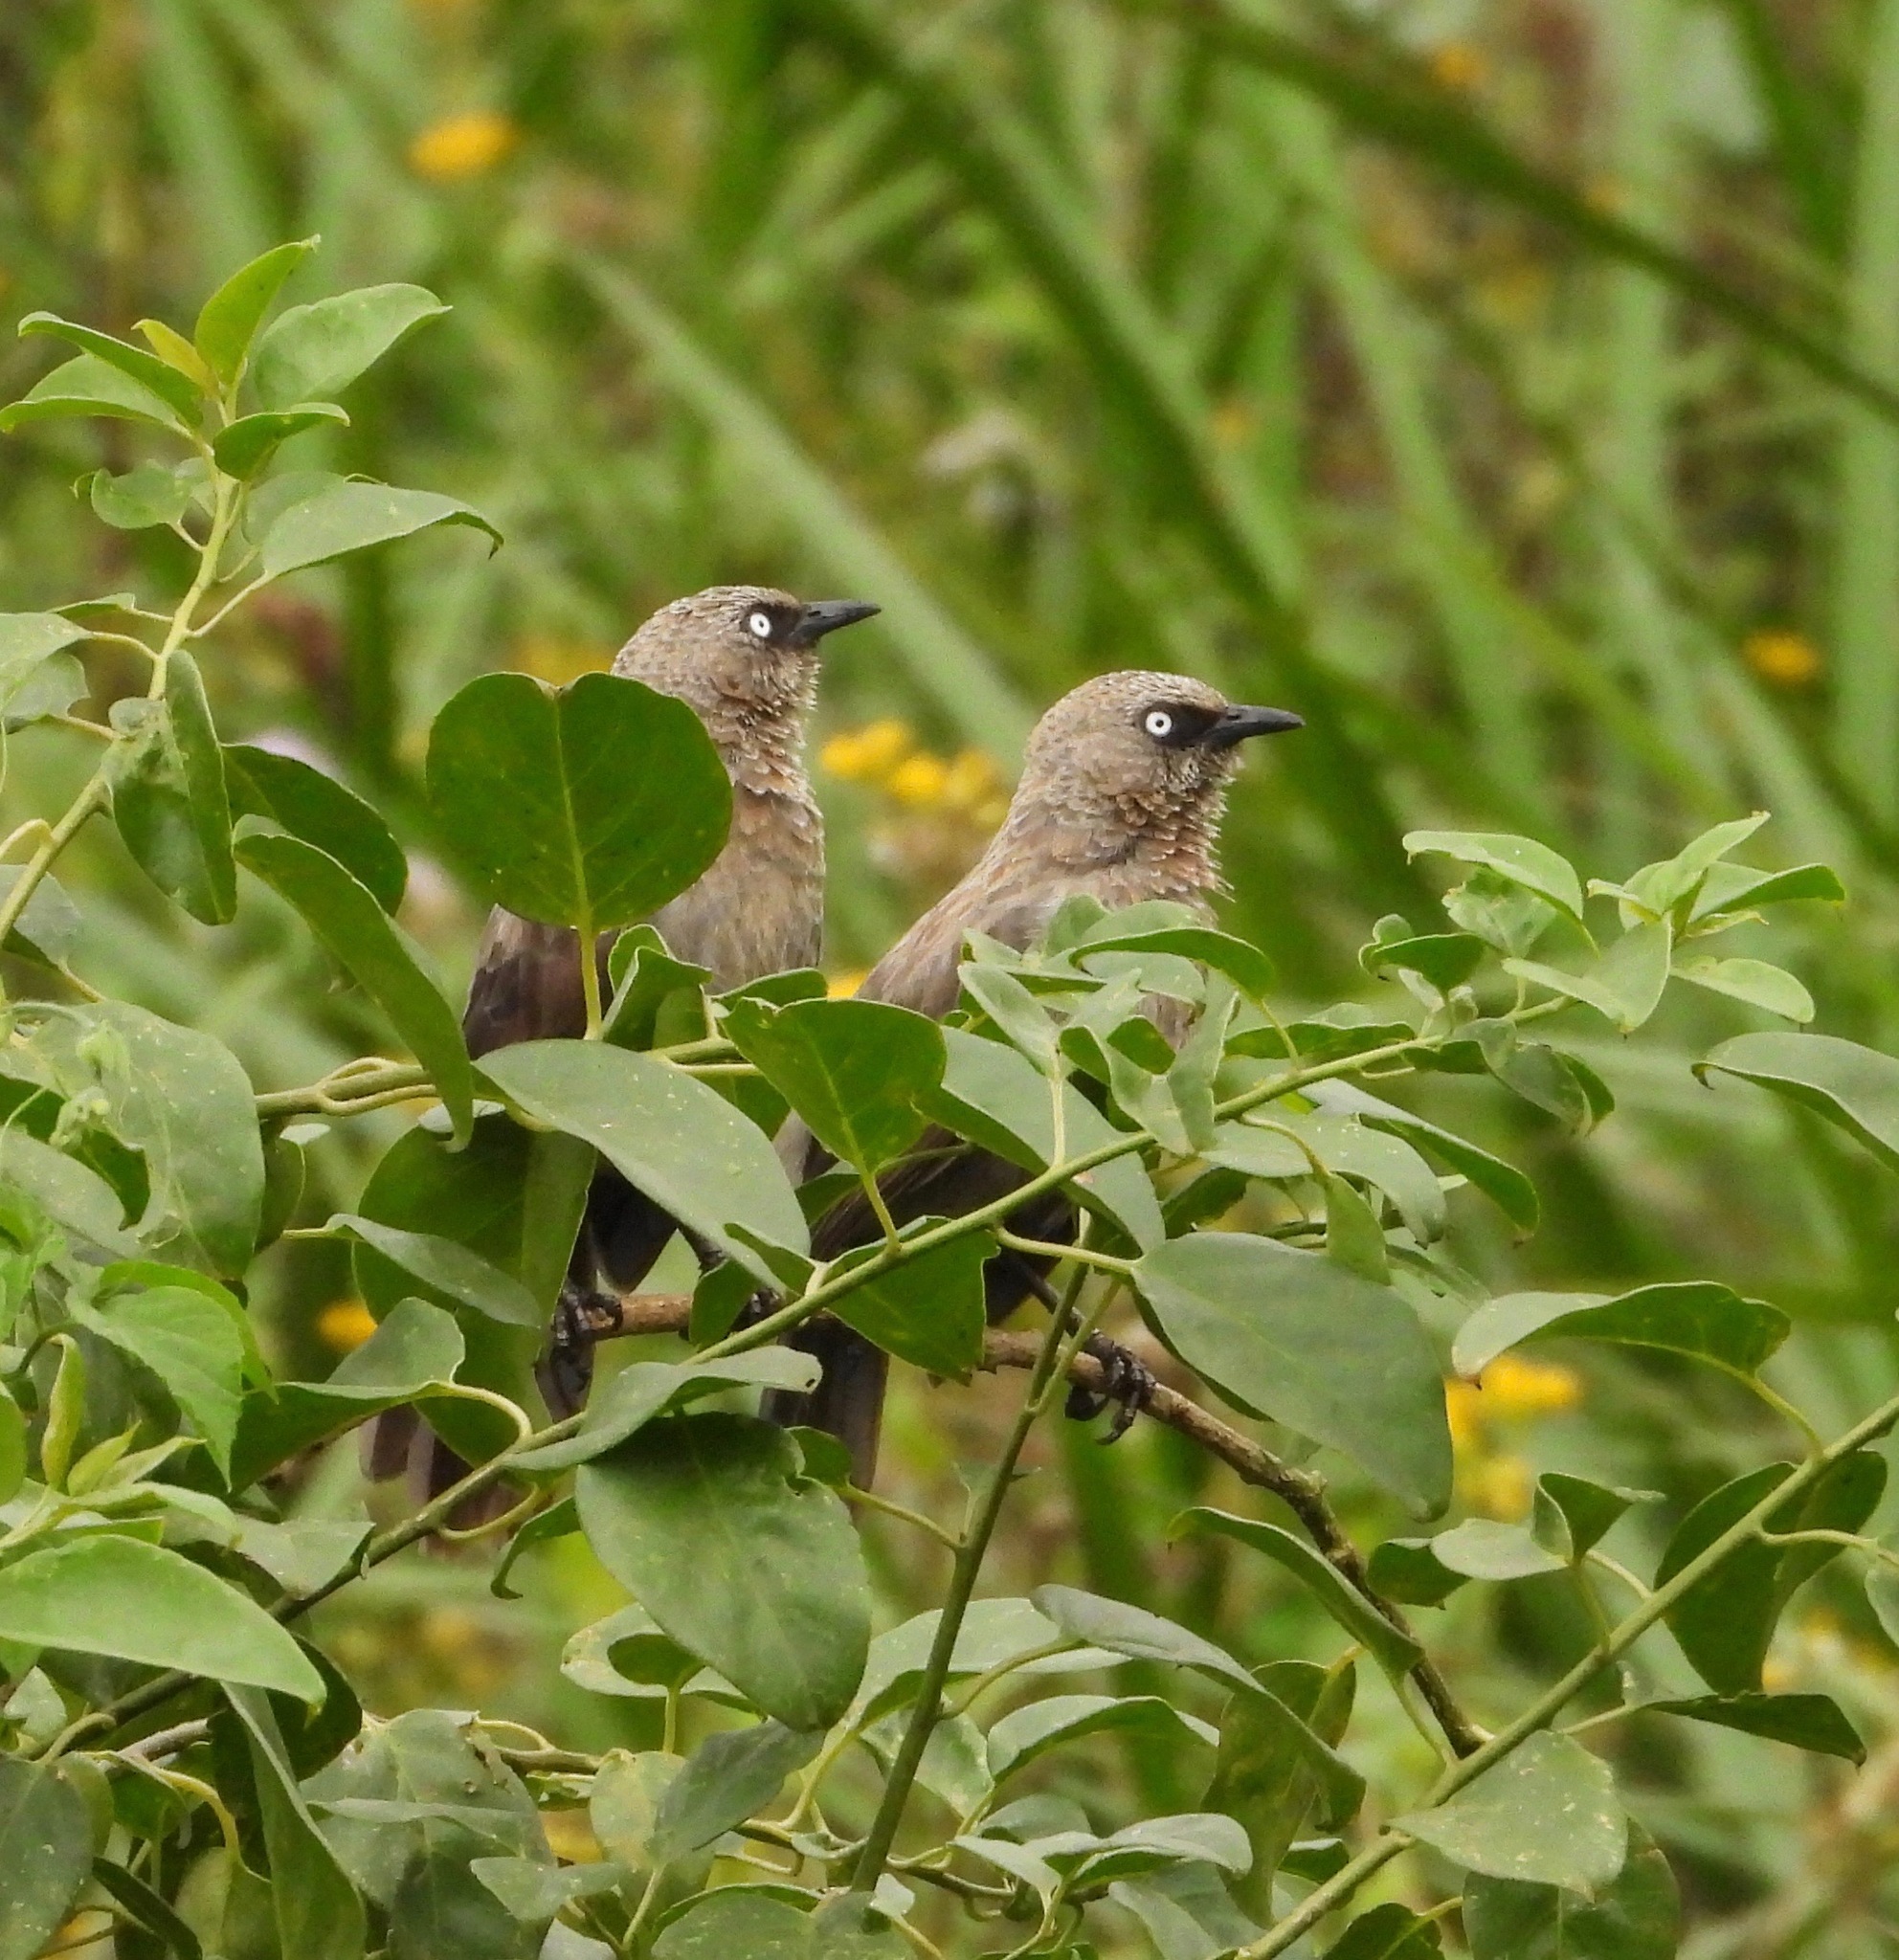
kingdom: Animalia
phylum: Chordata
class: Aves
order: Passeriformes
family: Leiothrichidae
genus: Turdoides
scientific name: Turdoides sharpei
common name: Black-lored babbler
